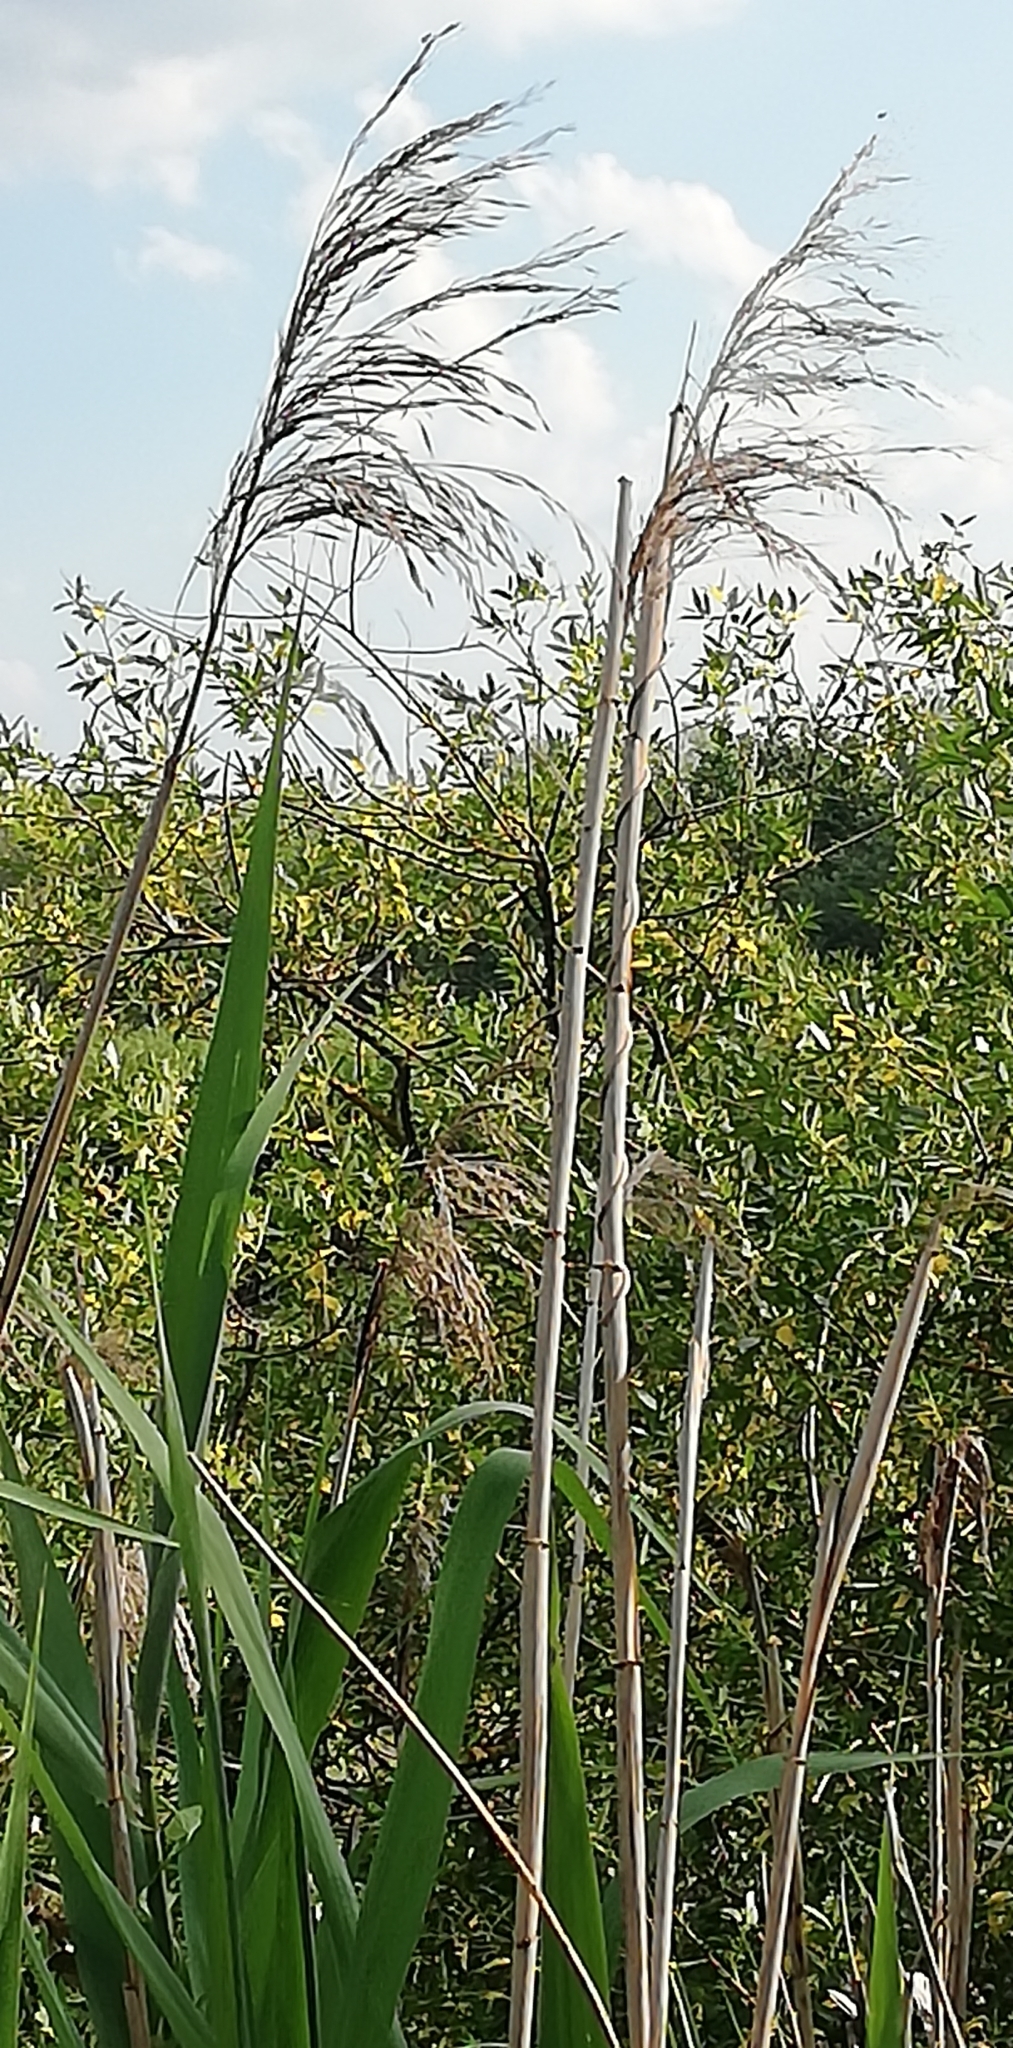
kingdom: Plantae
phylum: Tracheophyta
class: Liliopsida
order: Poales
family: Poaceae
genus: Phragmites
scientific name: Phragmites australis
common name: Common reed
